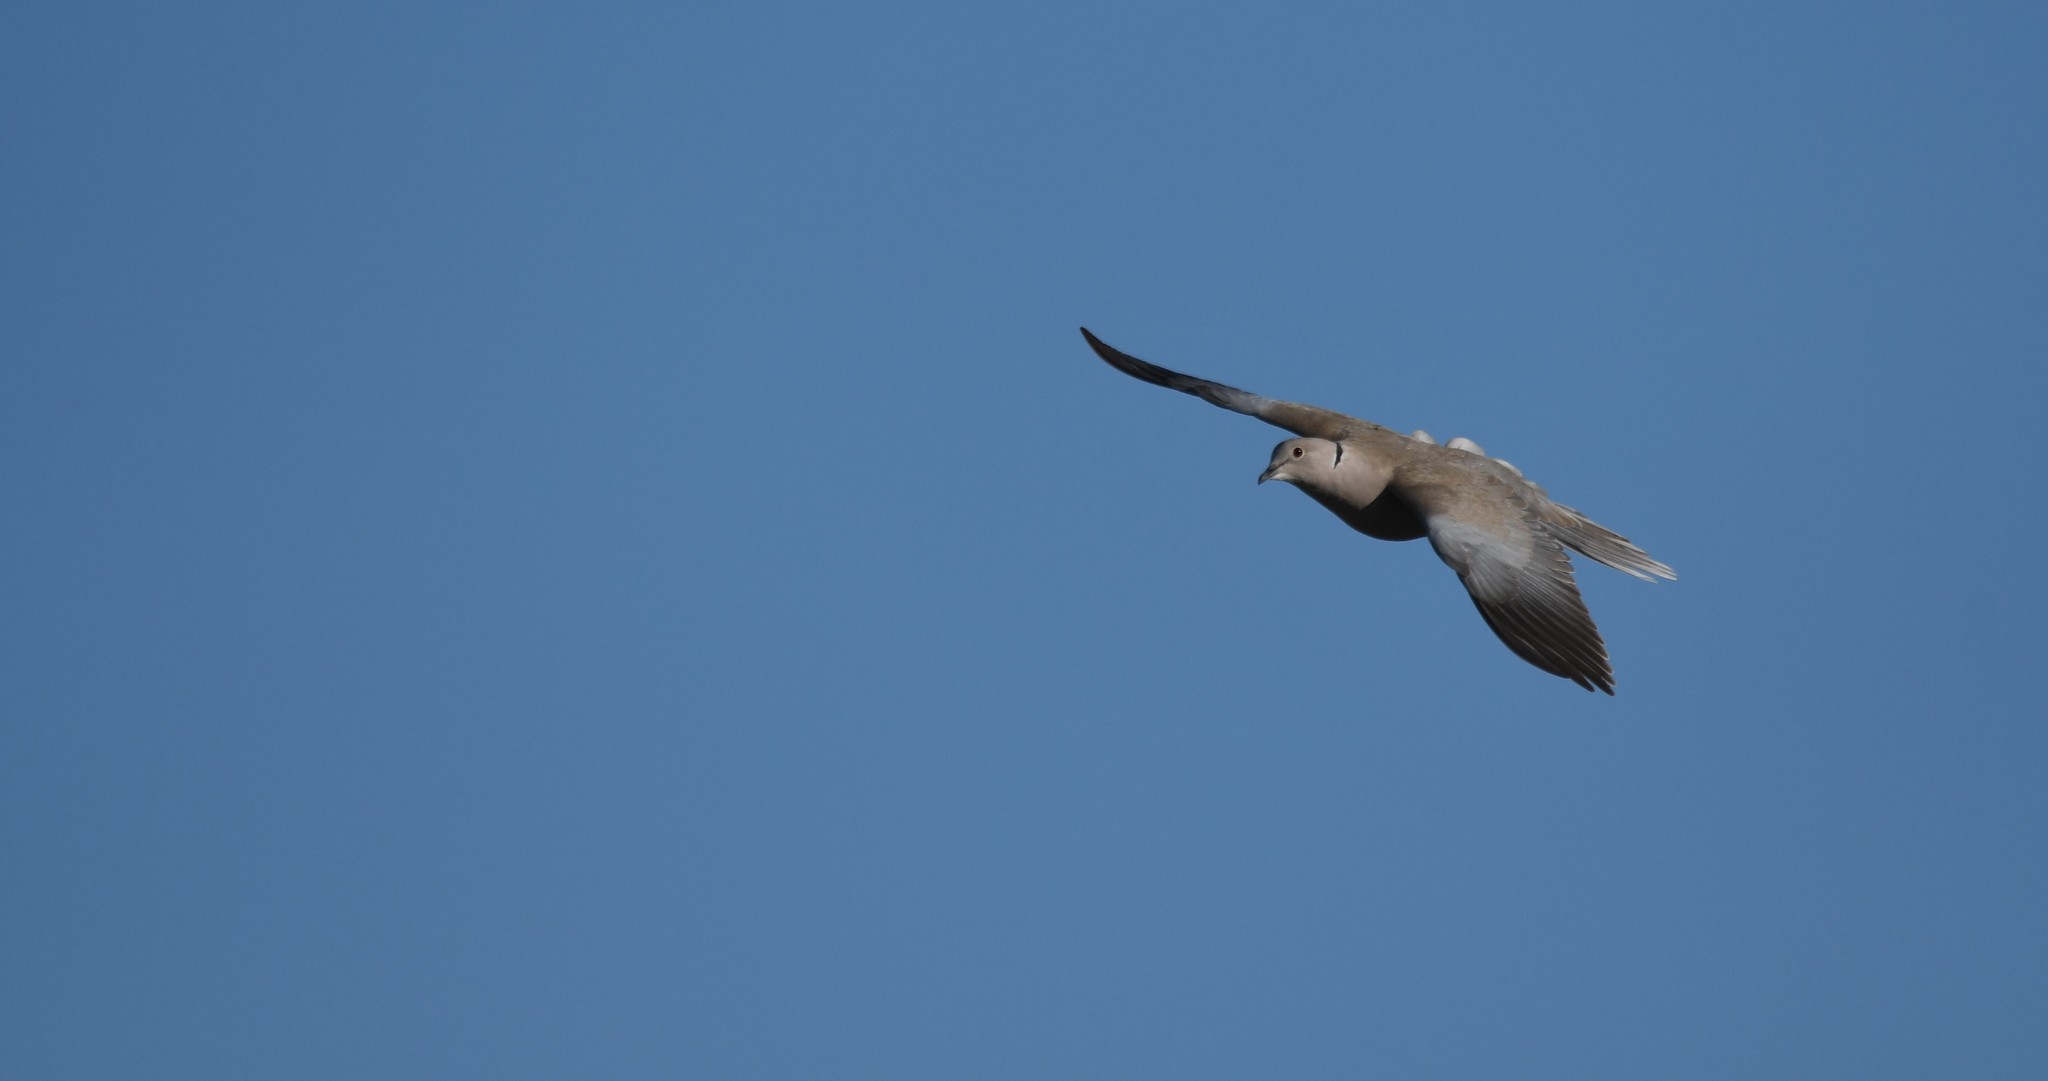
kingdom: Animalia
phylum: Chordata
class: Aves
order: Columbiformes
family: Columbidae
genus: Streptopelia
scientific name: Streptopelia decaocto
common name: Eurasian collared dove
